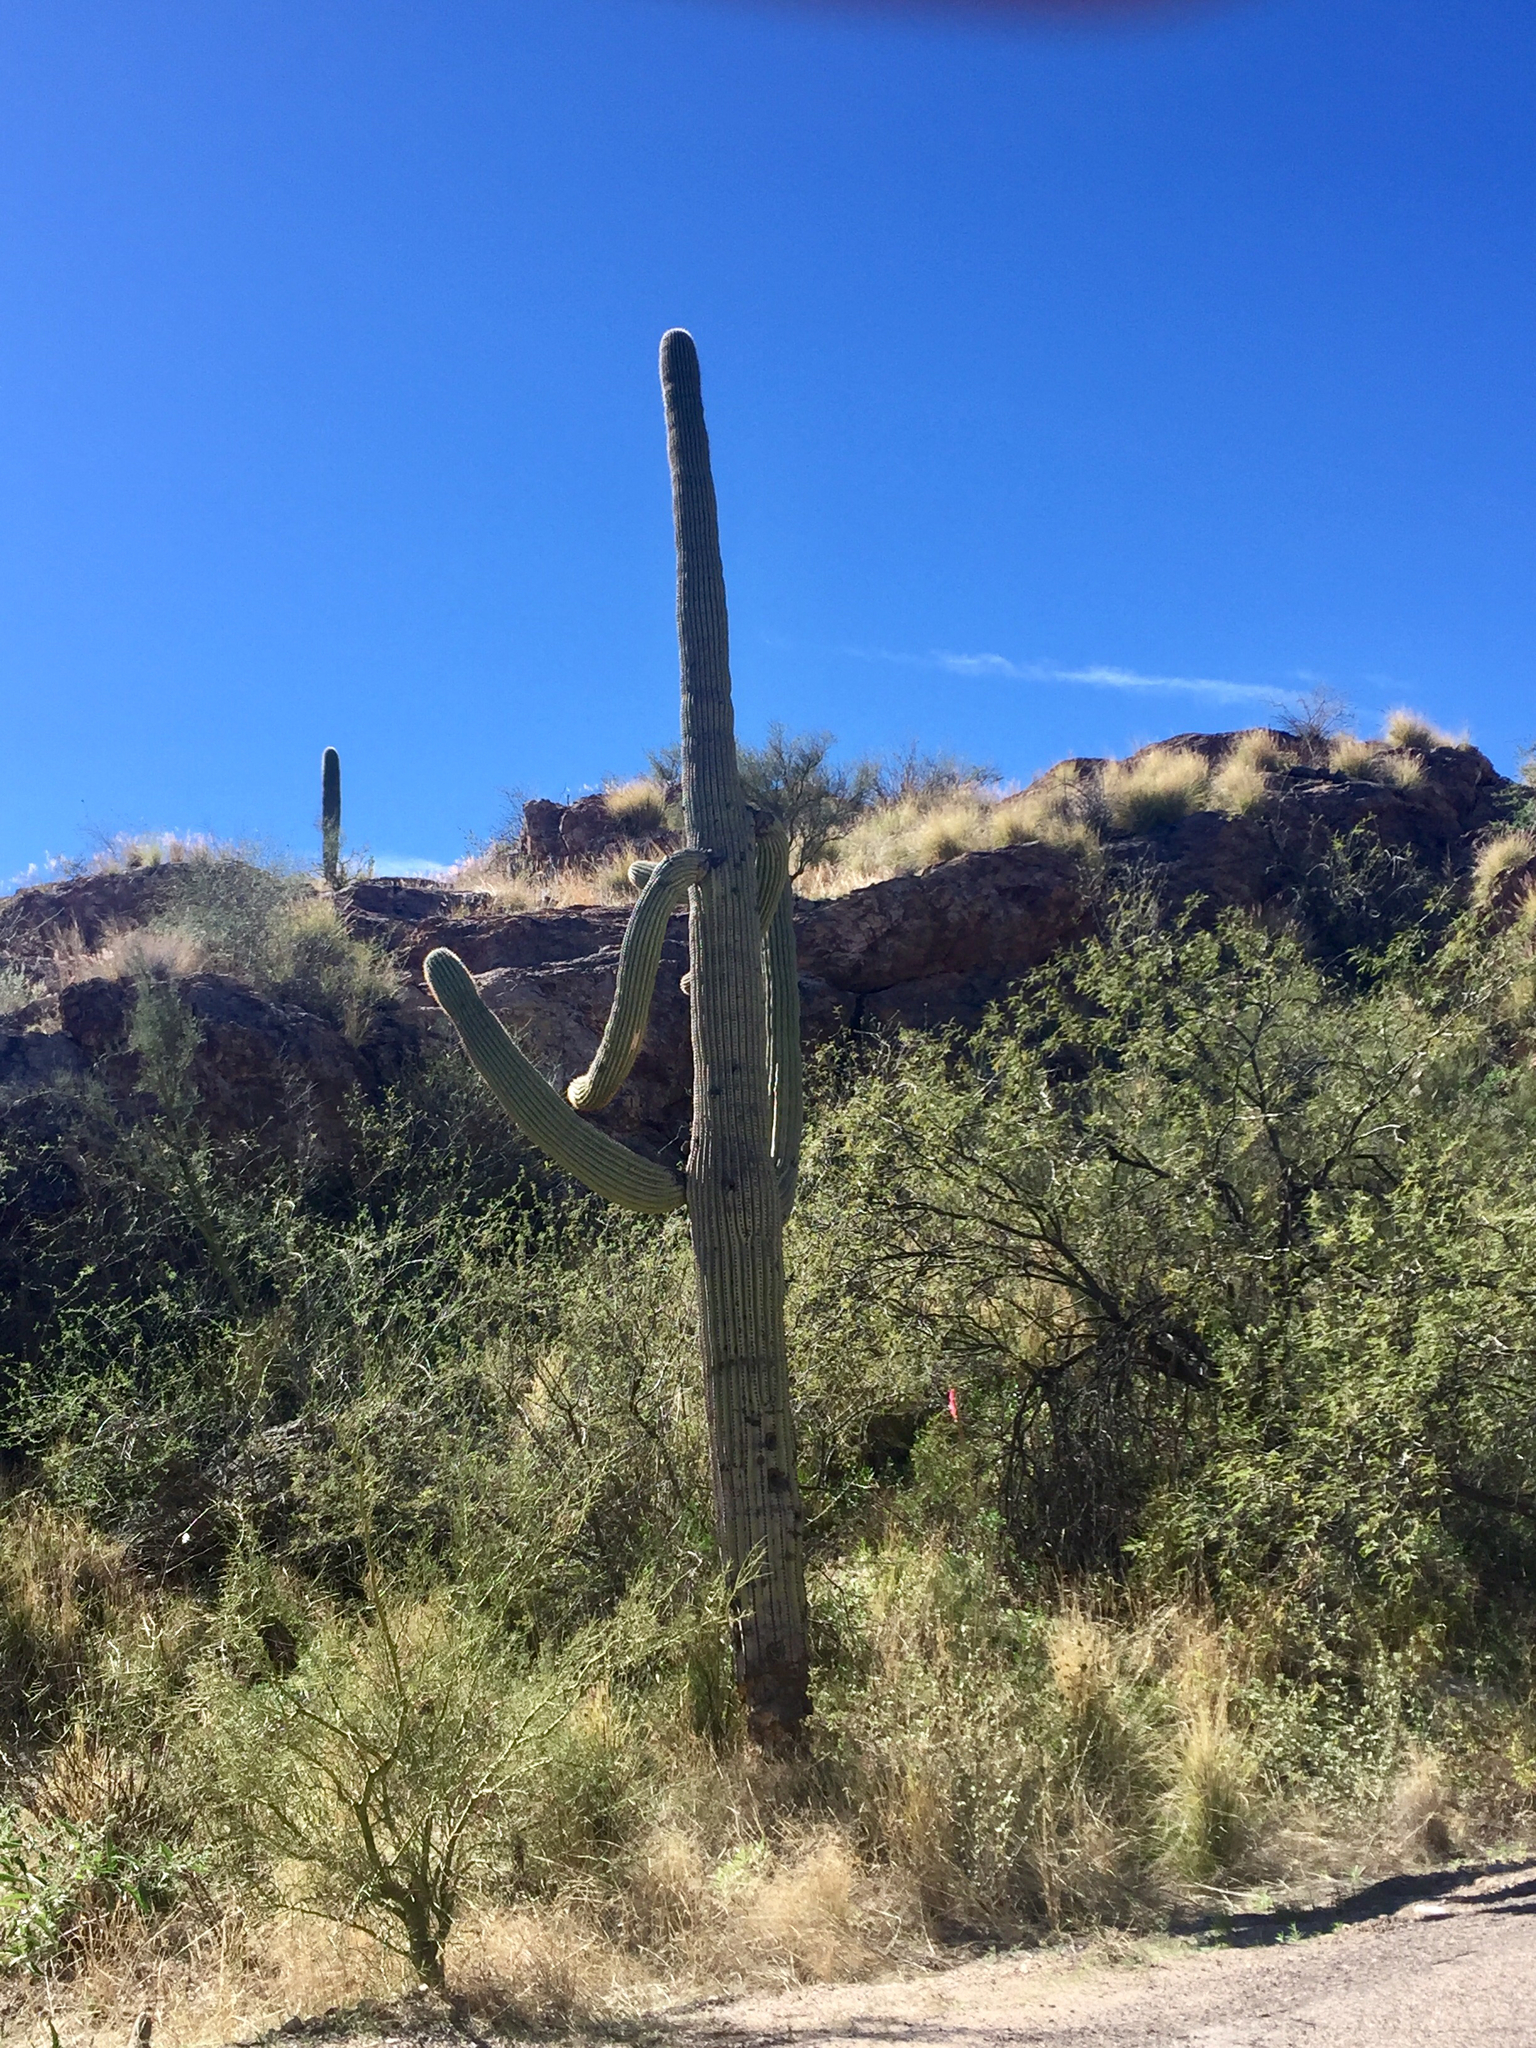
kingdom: Plantae
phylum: Tracheophyta
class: Magnoliopsida
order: Caryophyllales
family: Cactaceae
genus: Carnegiea
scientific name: Carnegiea gigantea
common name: Saguaro
